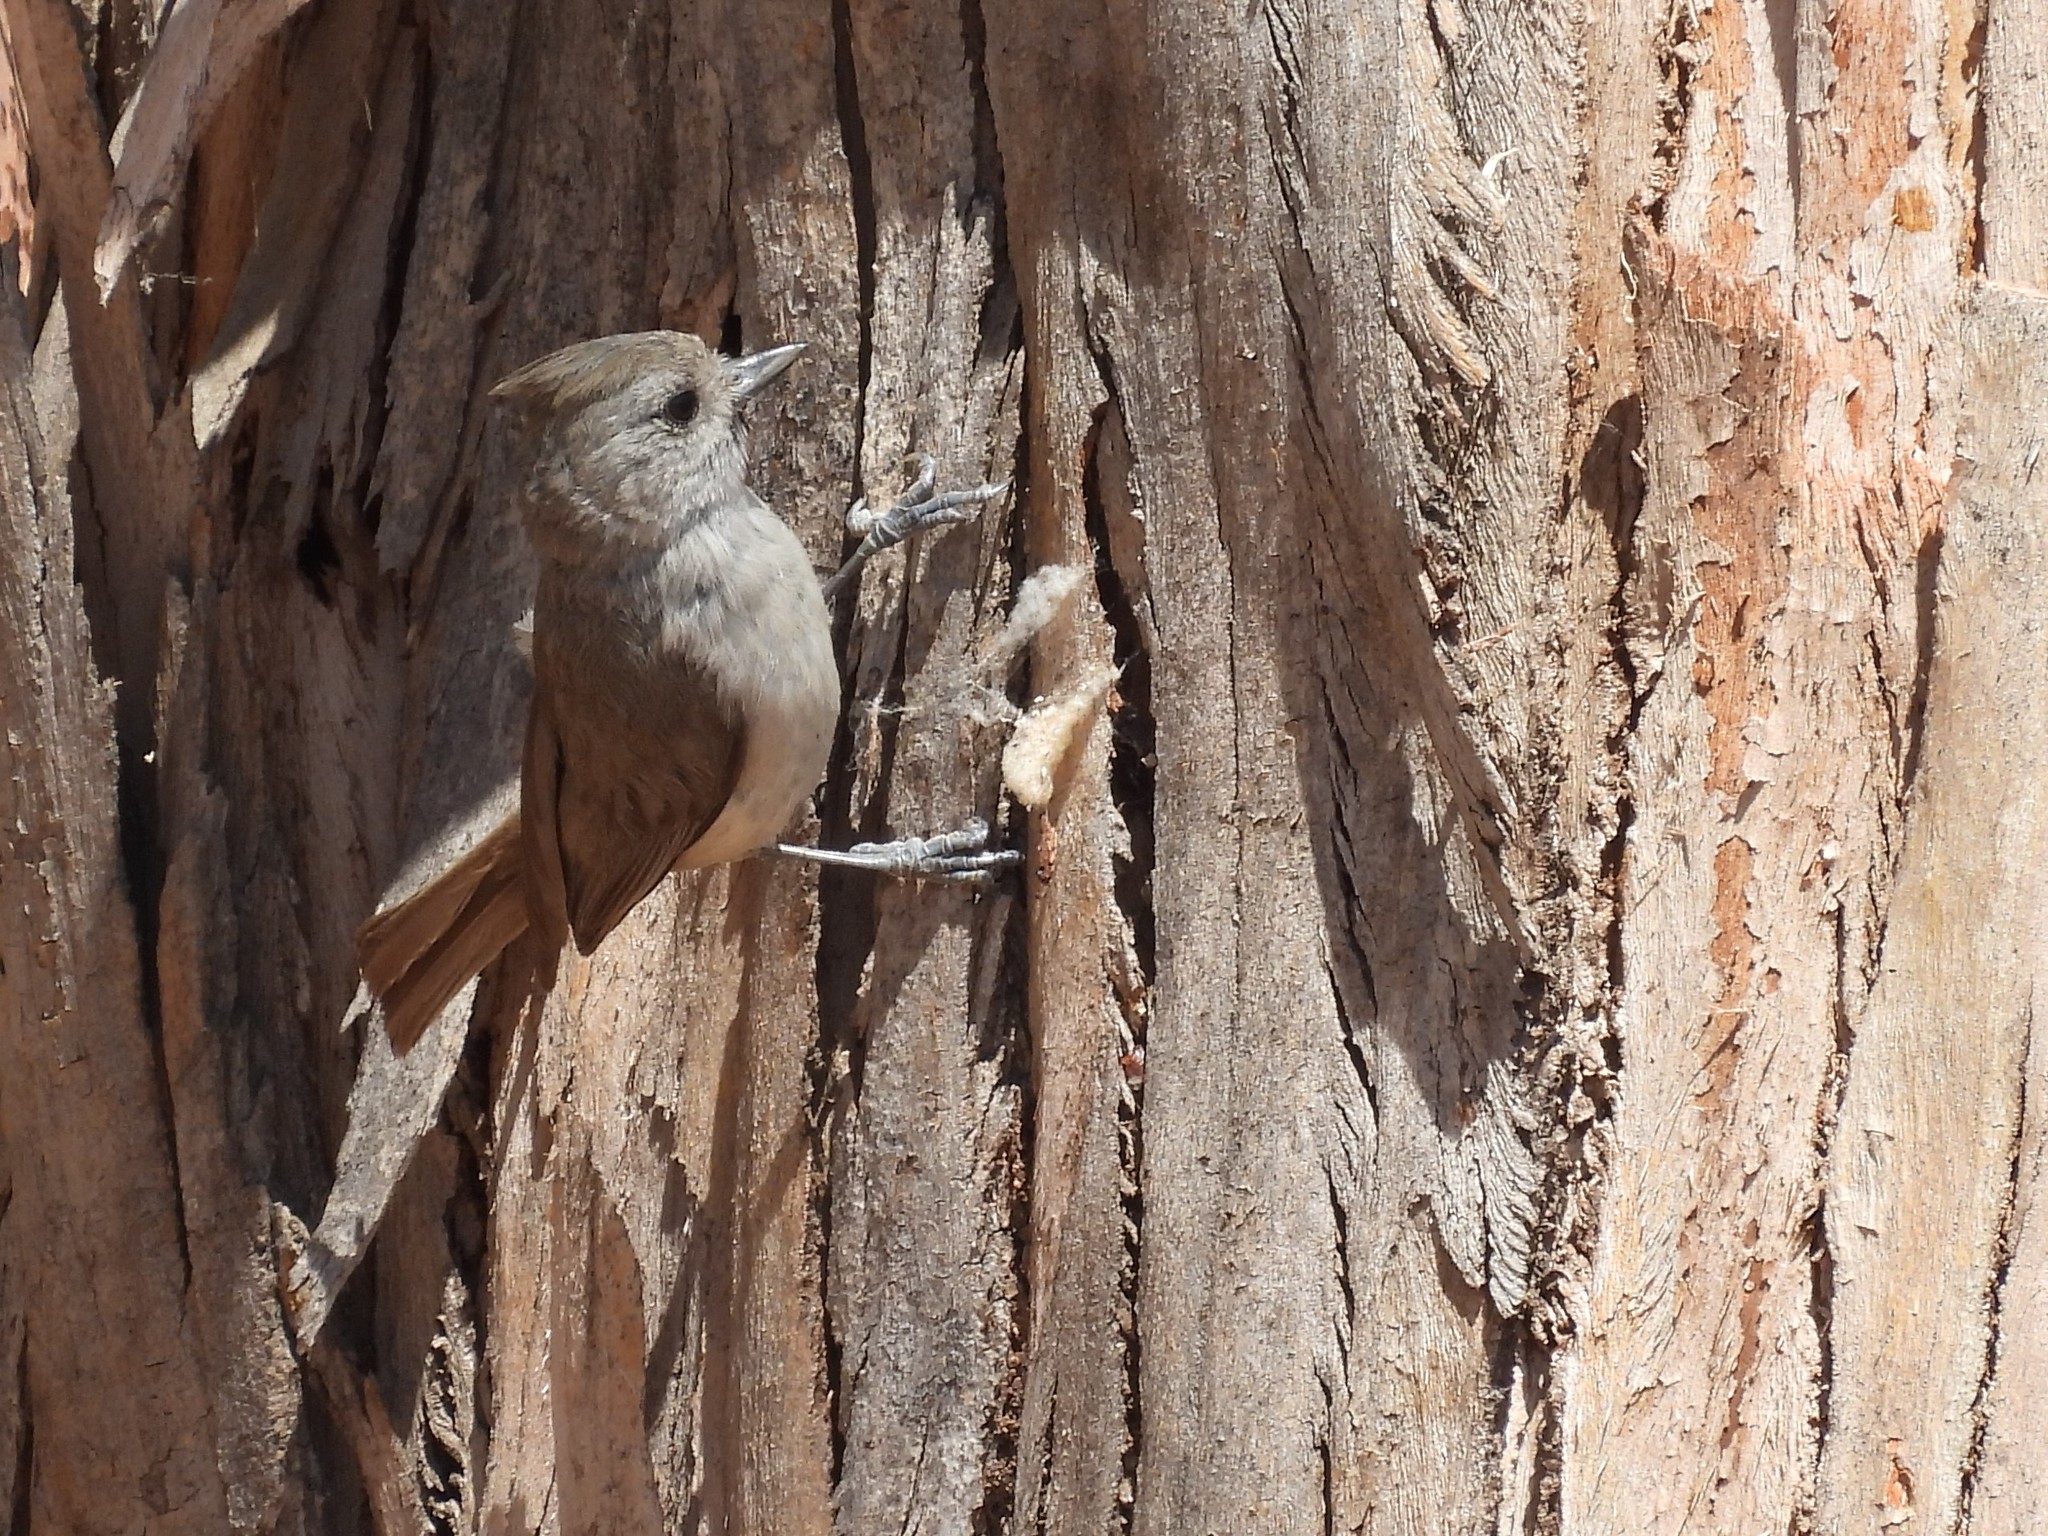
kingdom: Animalia
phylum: Chordata
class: Aves
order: Passeriformes
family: Paridae
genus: Baeolophus
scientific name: Baeolophus inornatus
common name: Oak titmouse
